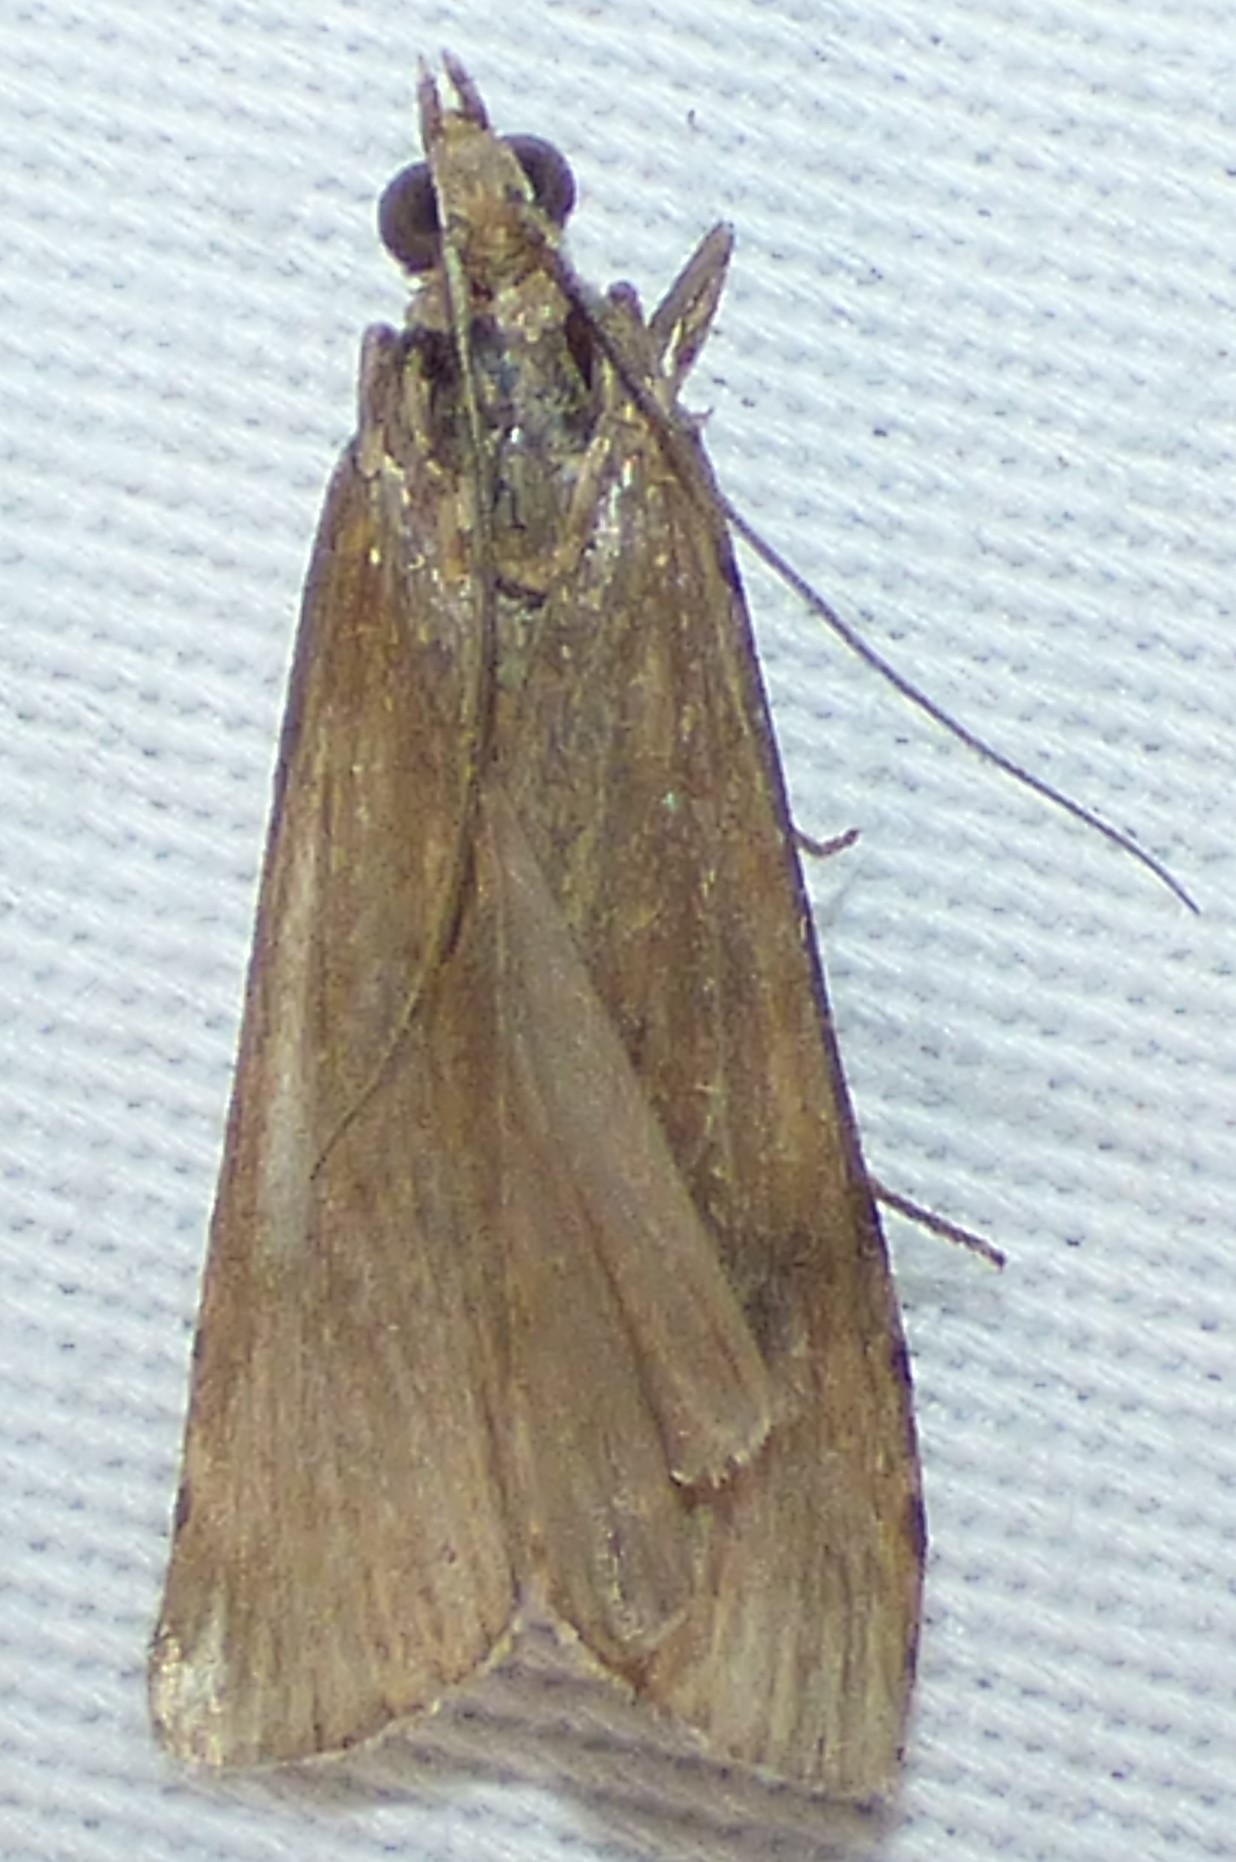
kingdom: Animalia
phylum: Arthropoda
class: Insecta
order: Lepidoptera
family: Crambidae
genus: Nomophila
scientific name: Nomophila nearctica
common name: American rush veneer
